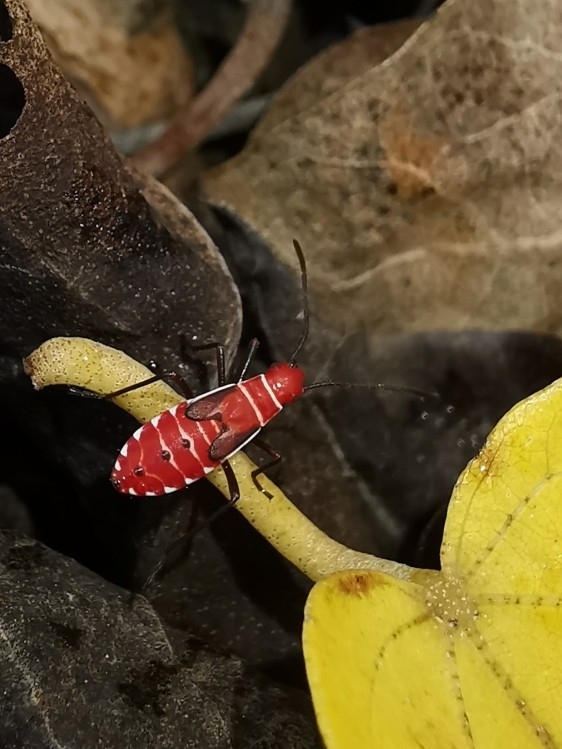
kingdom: Animalia
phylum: Arthropoda
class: Insecta
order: Hemiptera
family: Pyrrhocoridae
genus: Dysdercus
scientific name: Dysdercus andreae
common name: St. andrew's cotton stainer
